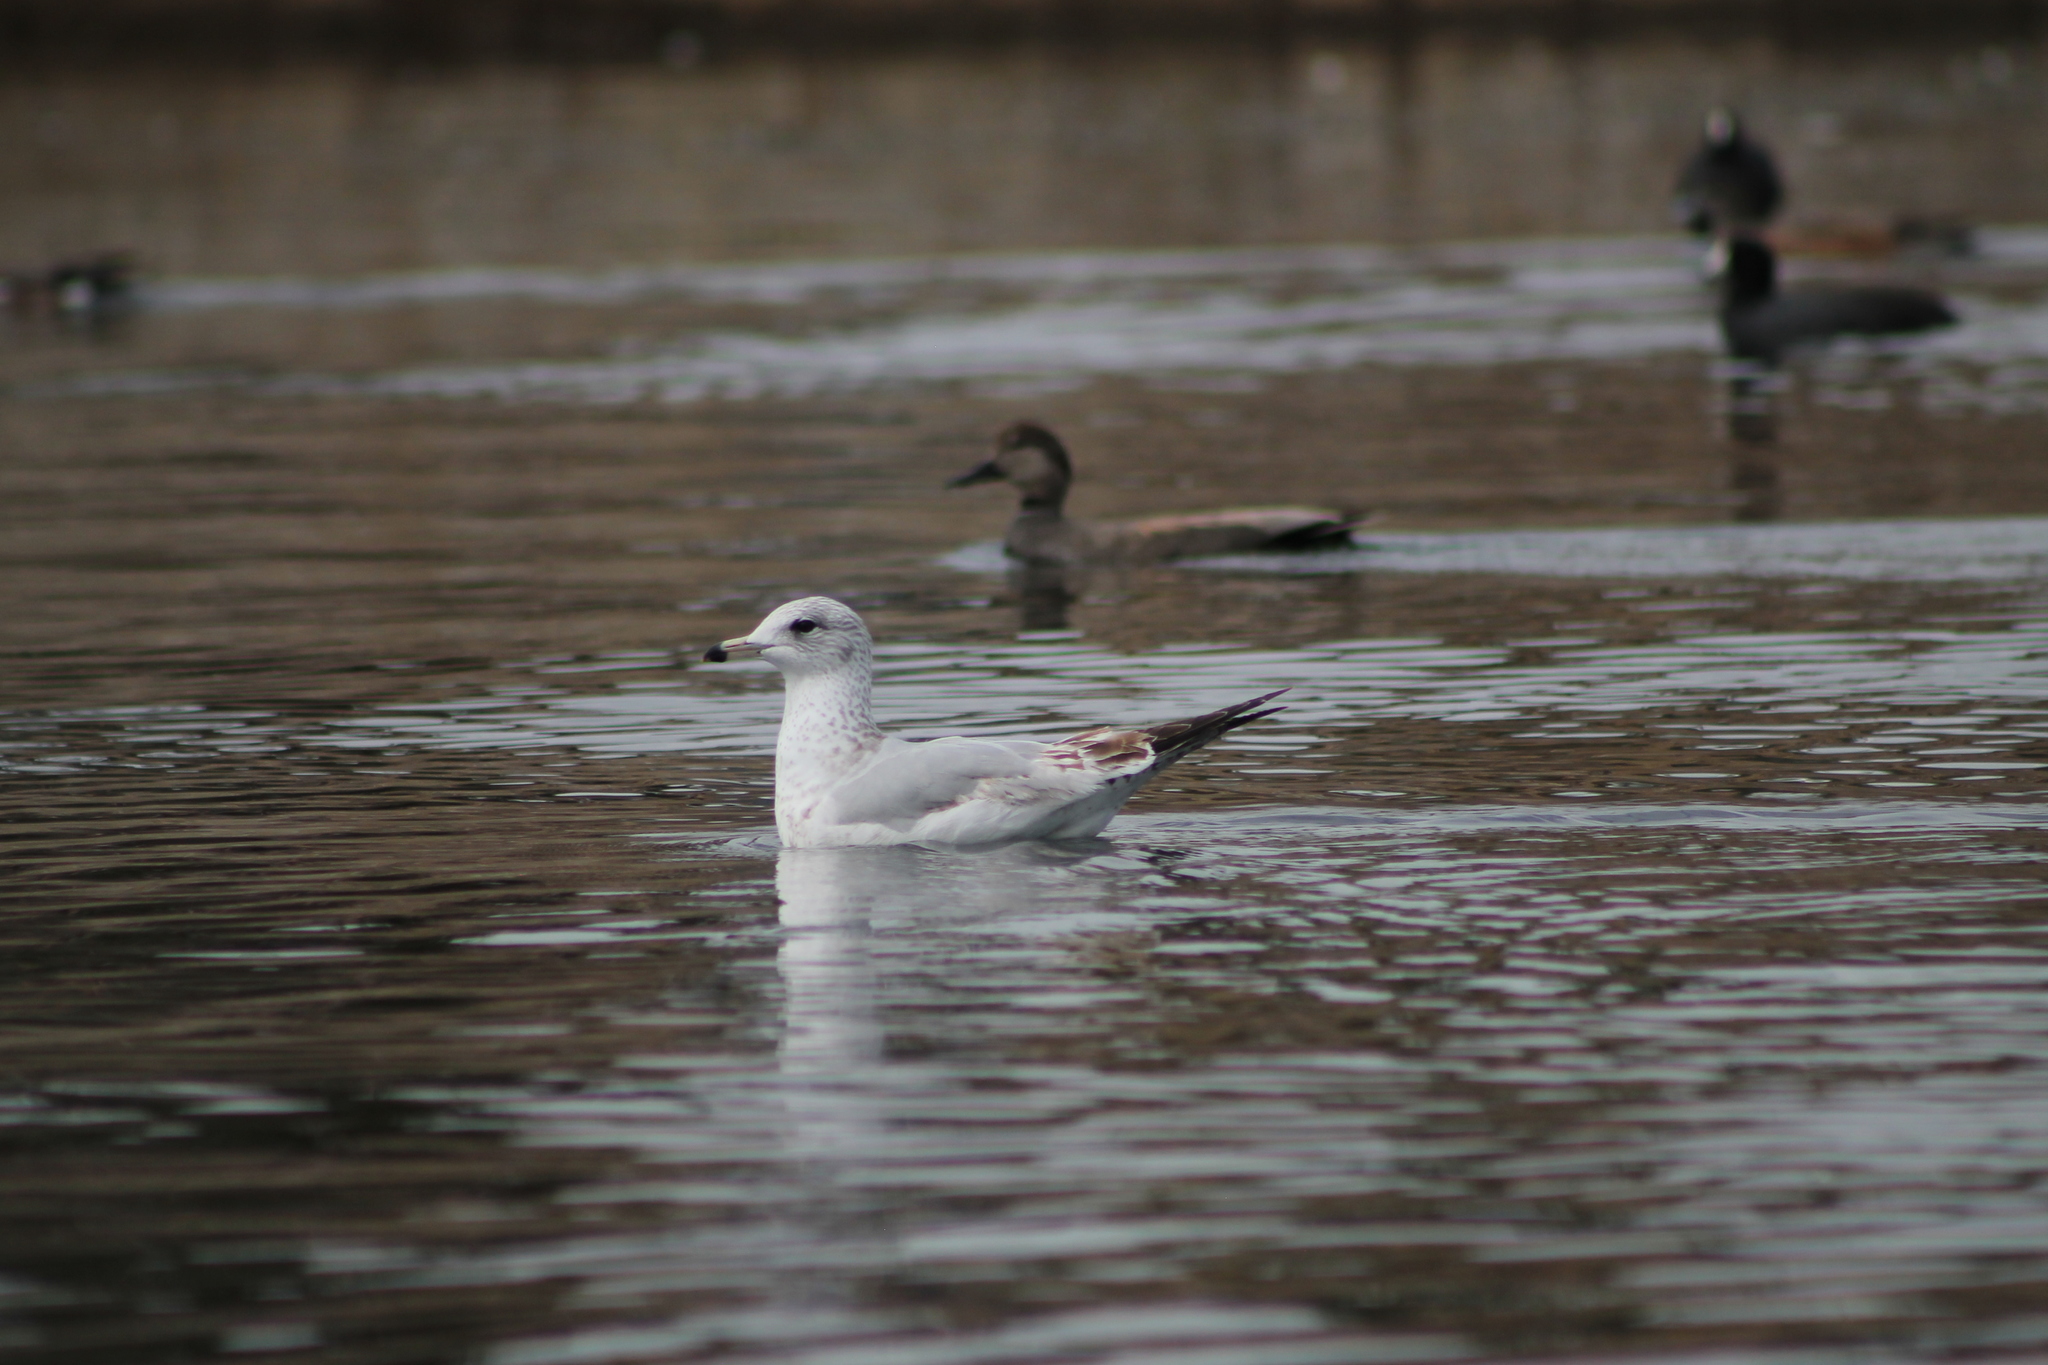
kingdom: Animalia
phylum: Chordata
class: Aves
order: Charadriiformes
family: Laridae
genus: Larus
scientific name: Larus delawarensis
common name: Ring-billed gull
